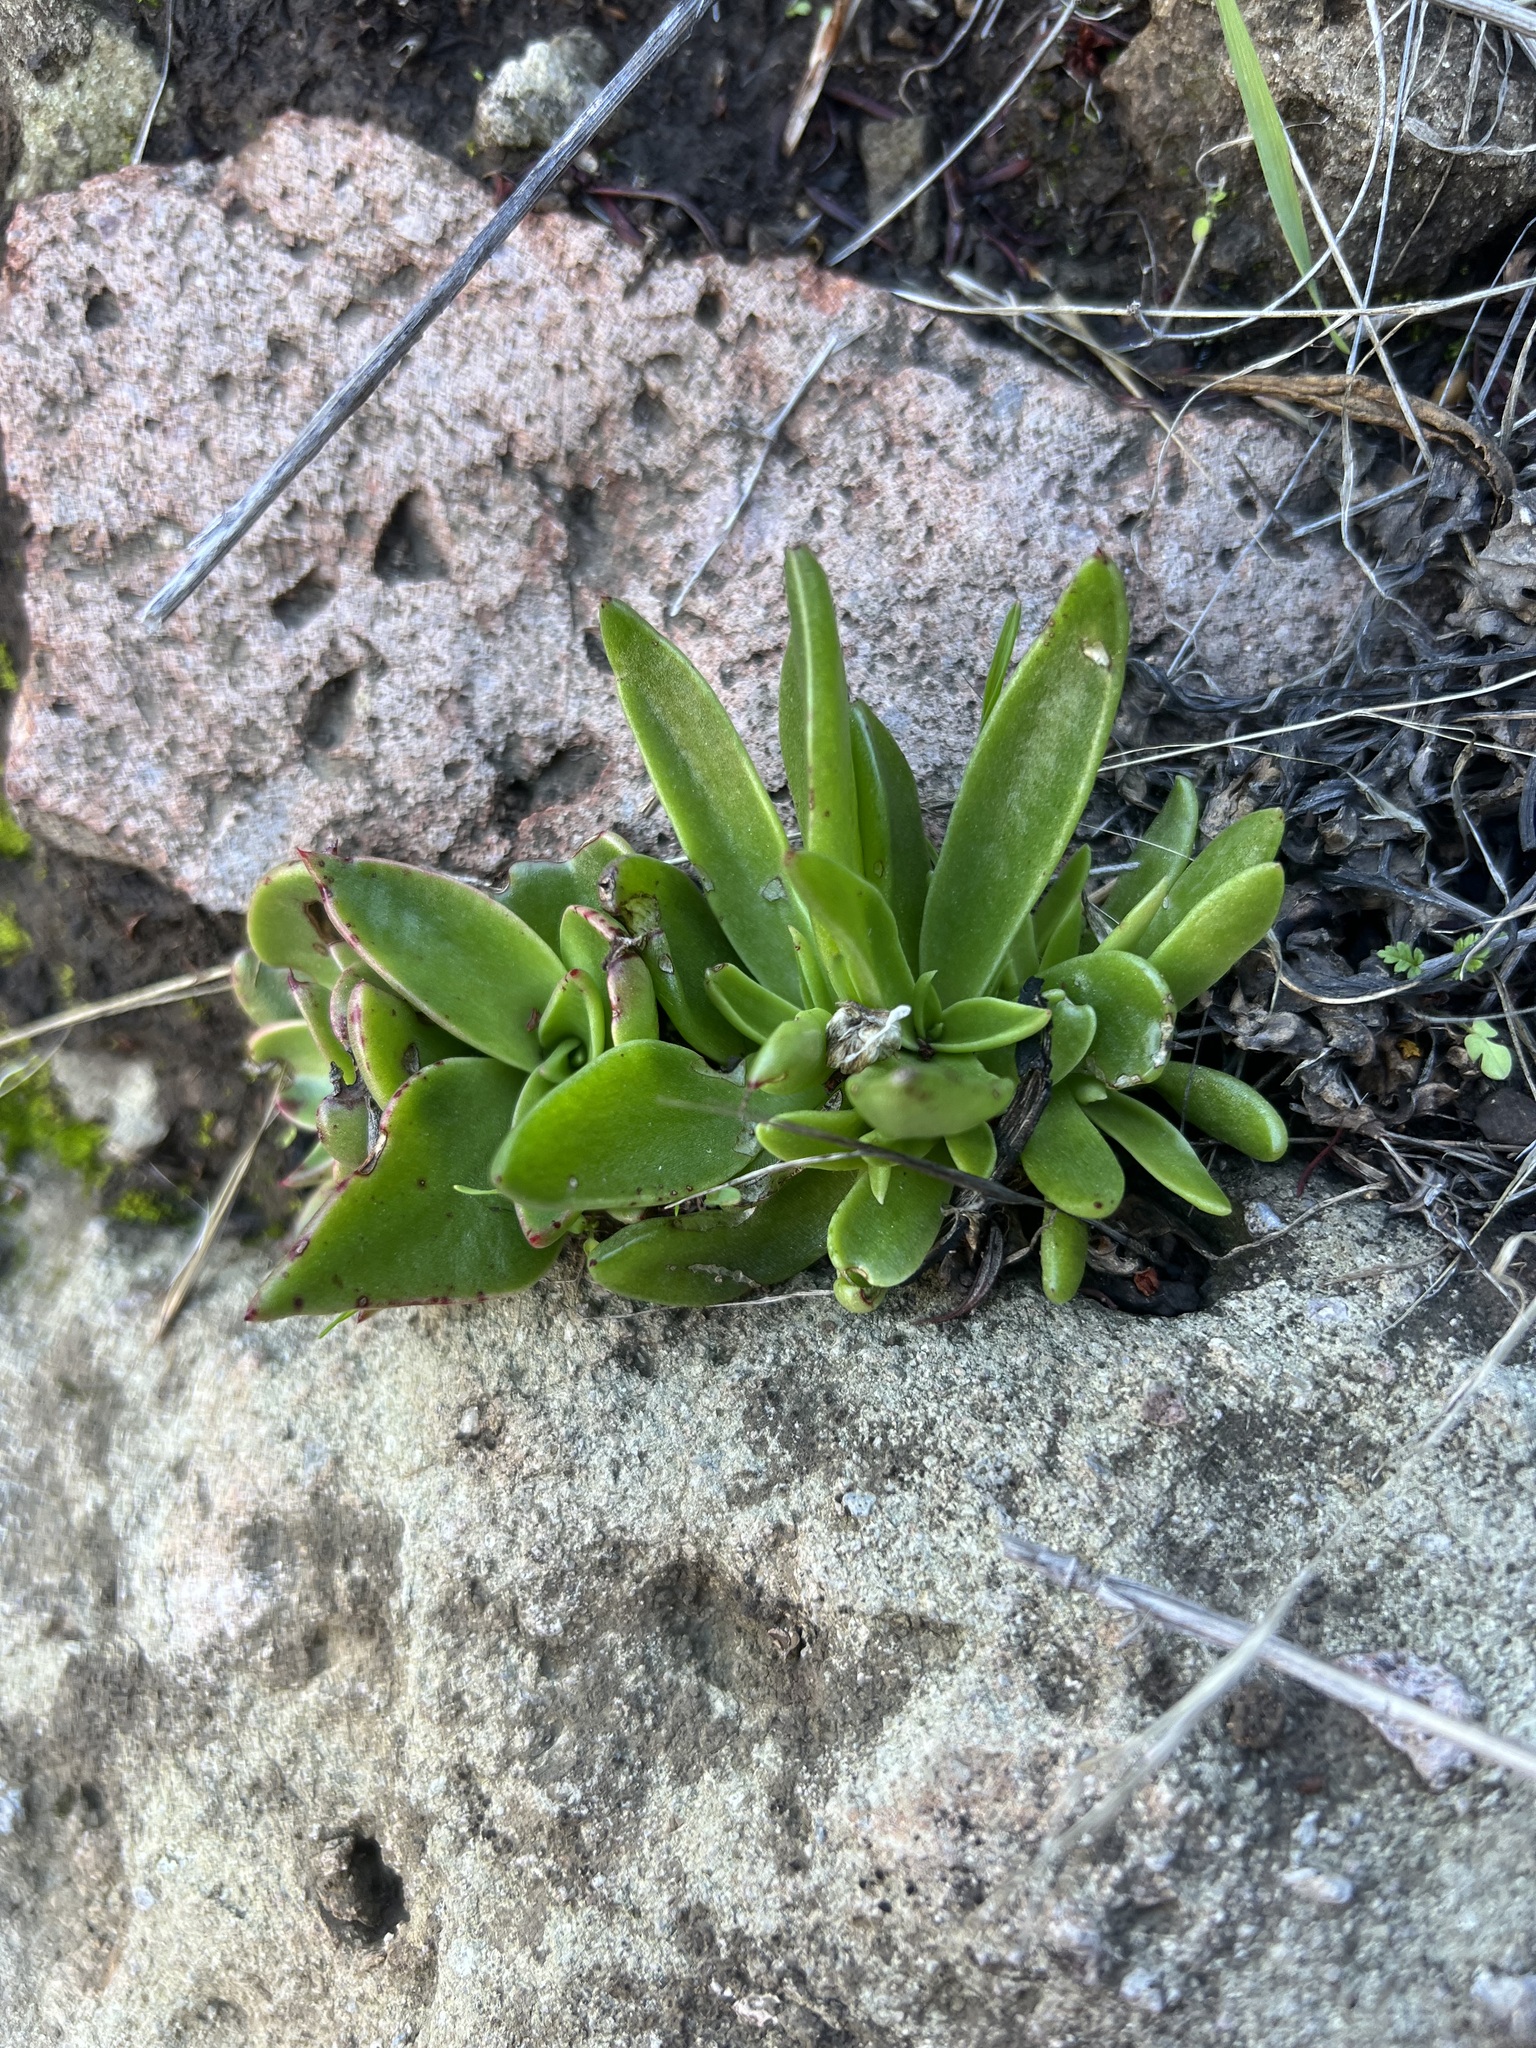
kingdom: Plantae
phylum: Tracheophyta
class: Magnoliopsida
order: Saxifragales
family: Crassulaceae
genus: Dudleya
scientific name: Dudleya lanceolata
